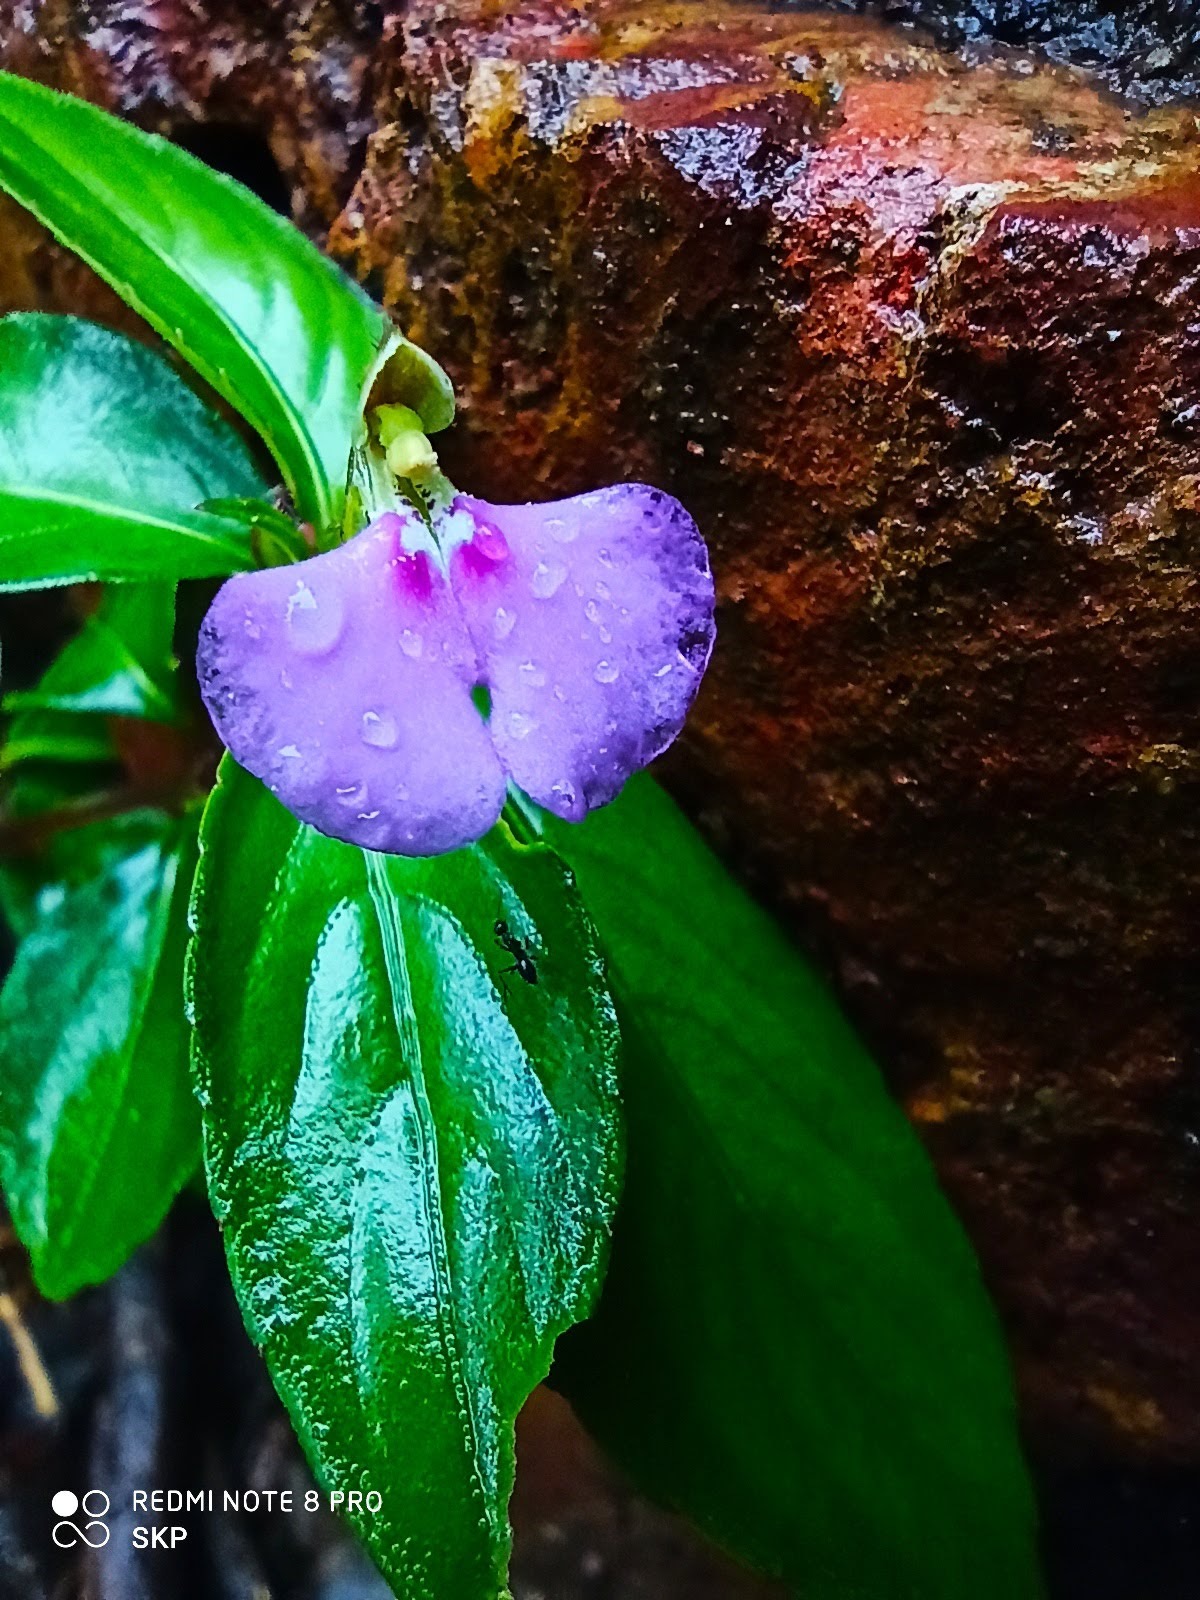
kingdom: Plantae
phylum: Tracheophyta
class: Magnoliopsida
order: Ericales
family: Balsaminaceae
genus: Impatiens
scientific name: Impatiens minor
